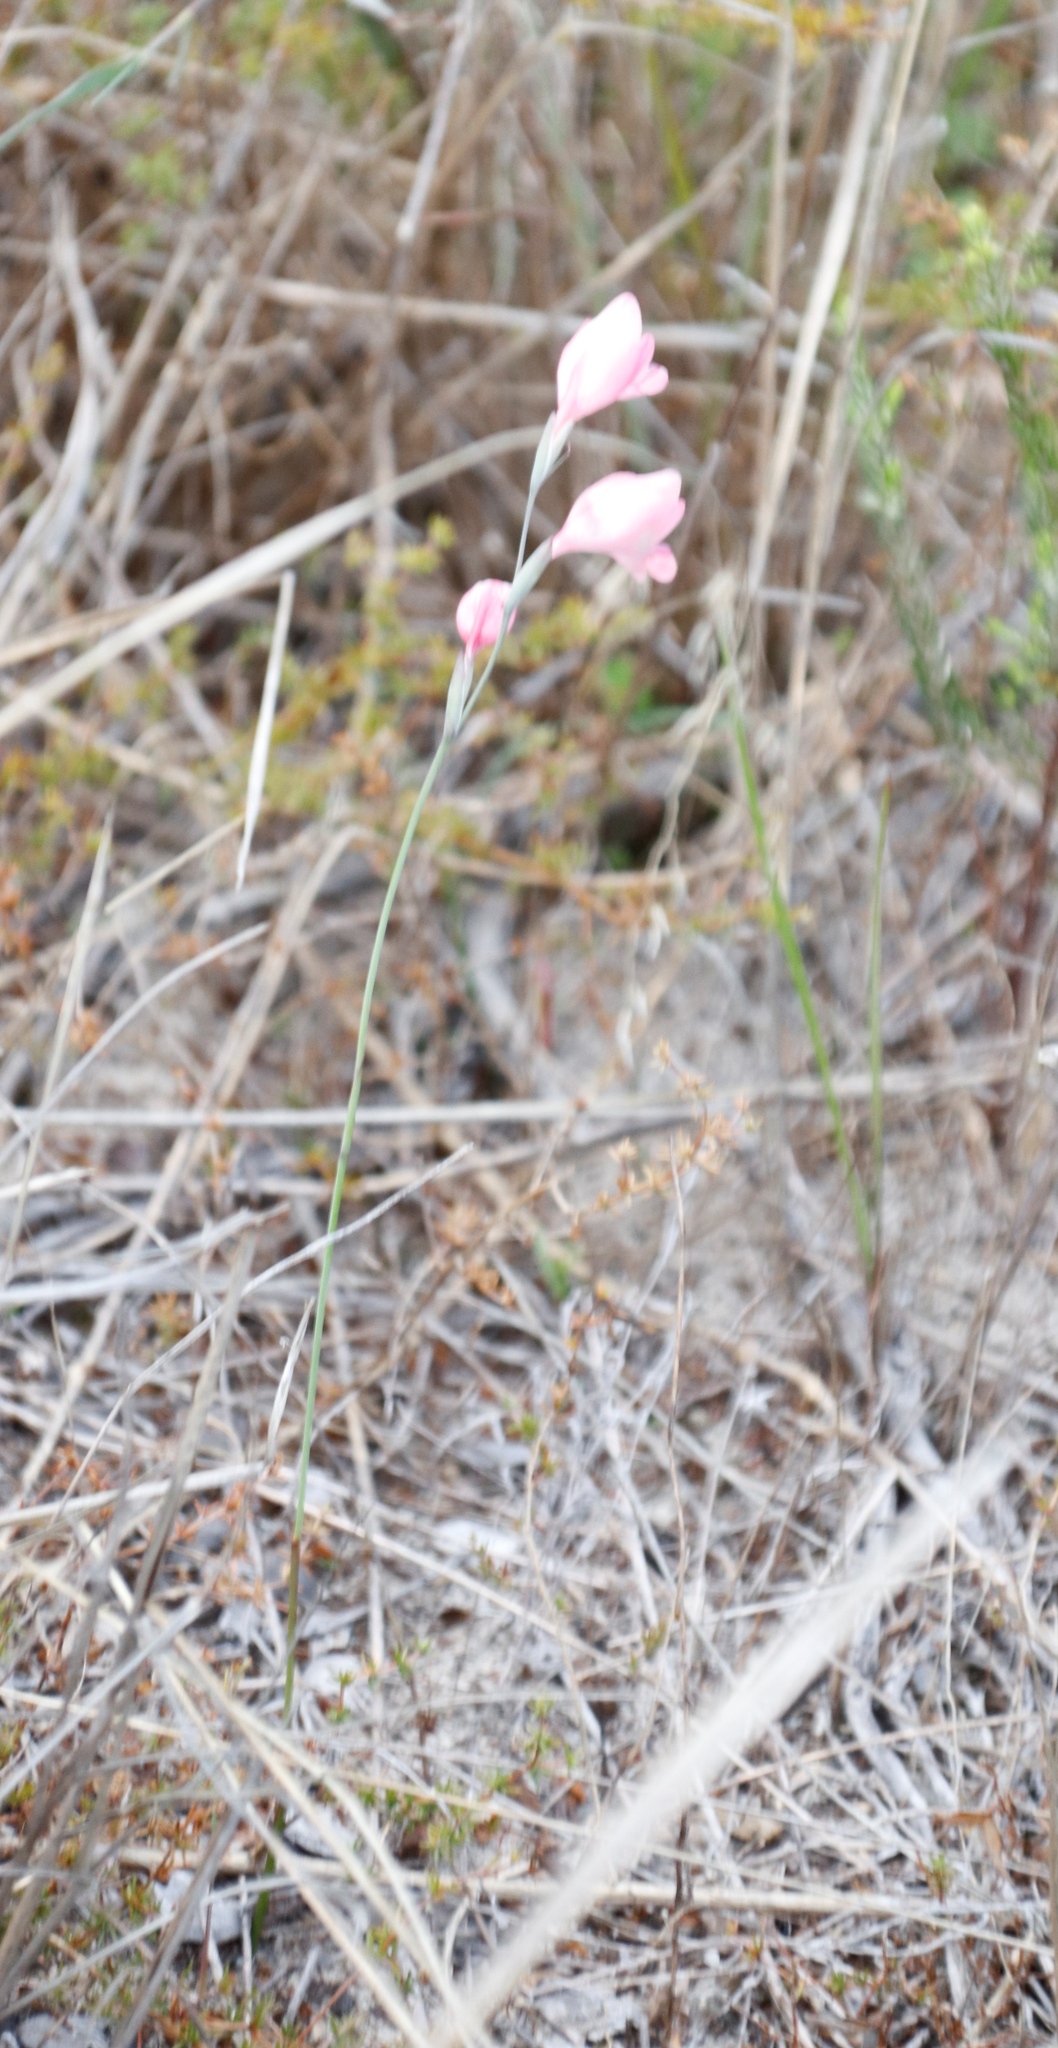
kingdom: Plantae
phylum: Tracheophyta
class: Liliopsida
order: Asparagales
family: Iridaceae
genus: Gladiolus
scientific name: Gladiolus brevifolius
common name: March pypie
